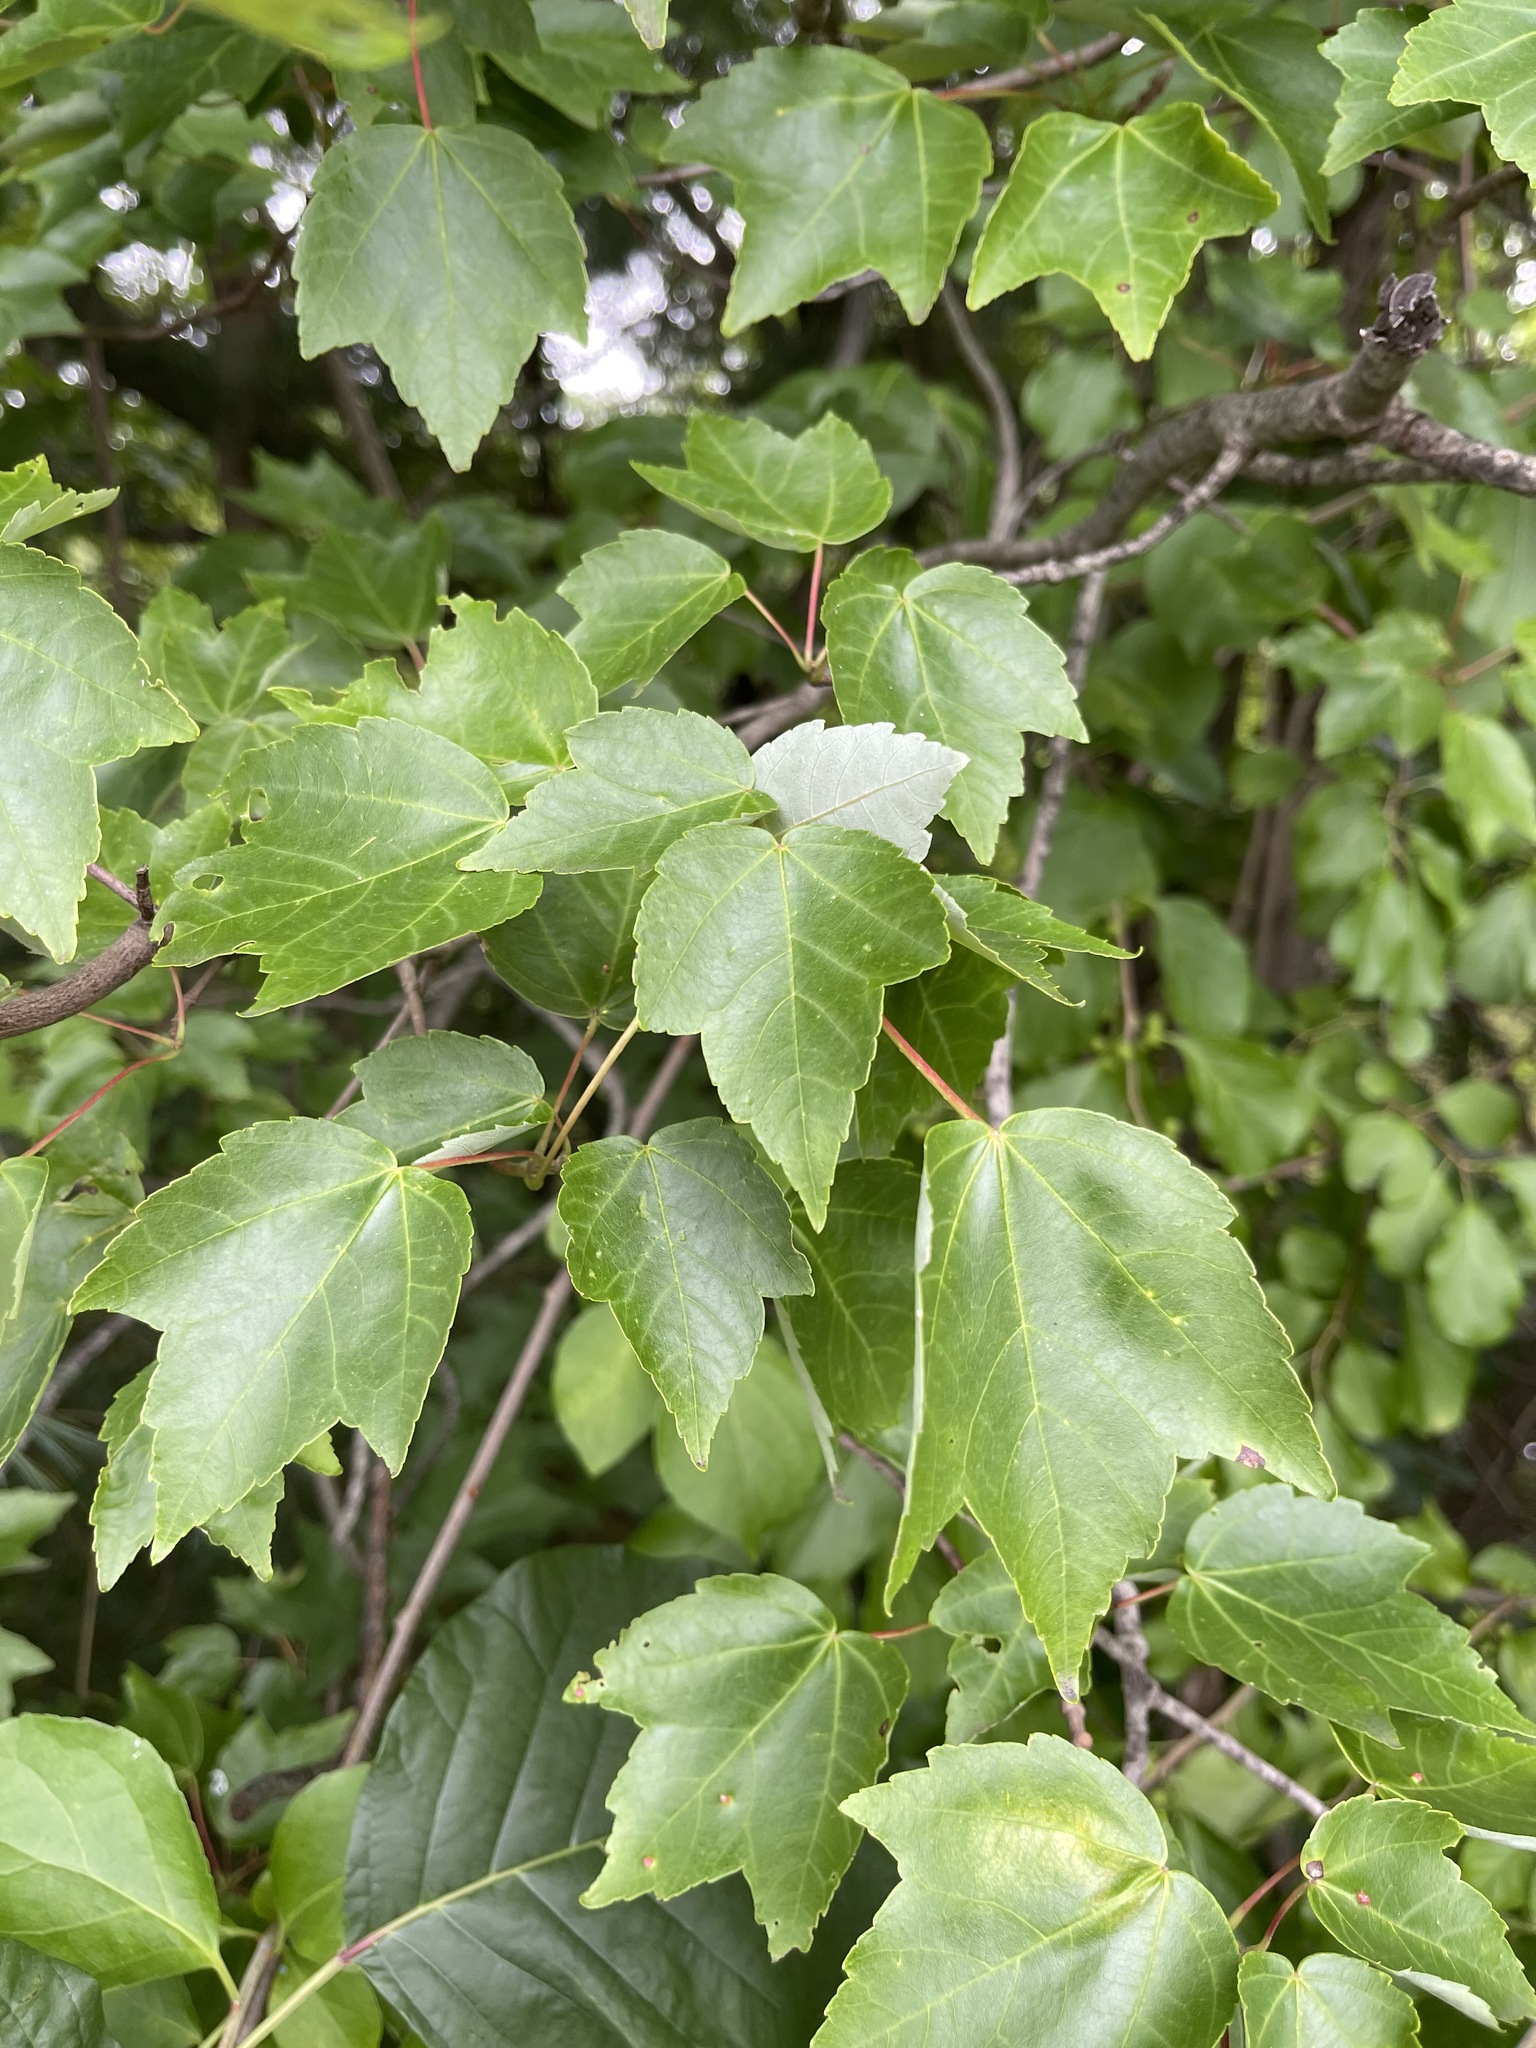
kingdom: Plantae
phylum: Tracheophyta
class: Magnoliopsida
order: Sapindales
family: Sapindaceae
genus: Acer
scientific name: Acer rubrum
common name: Red maple
